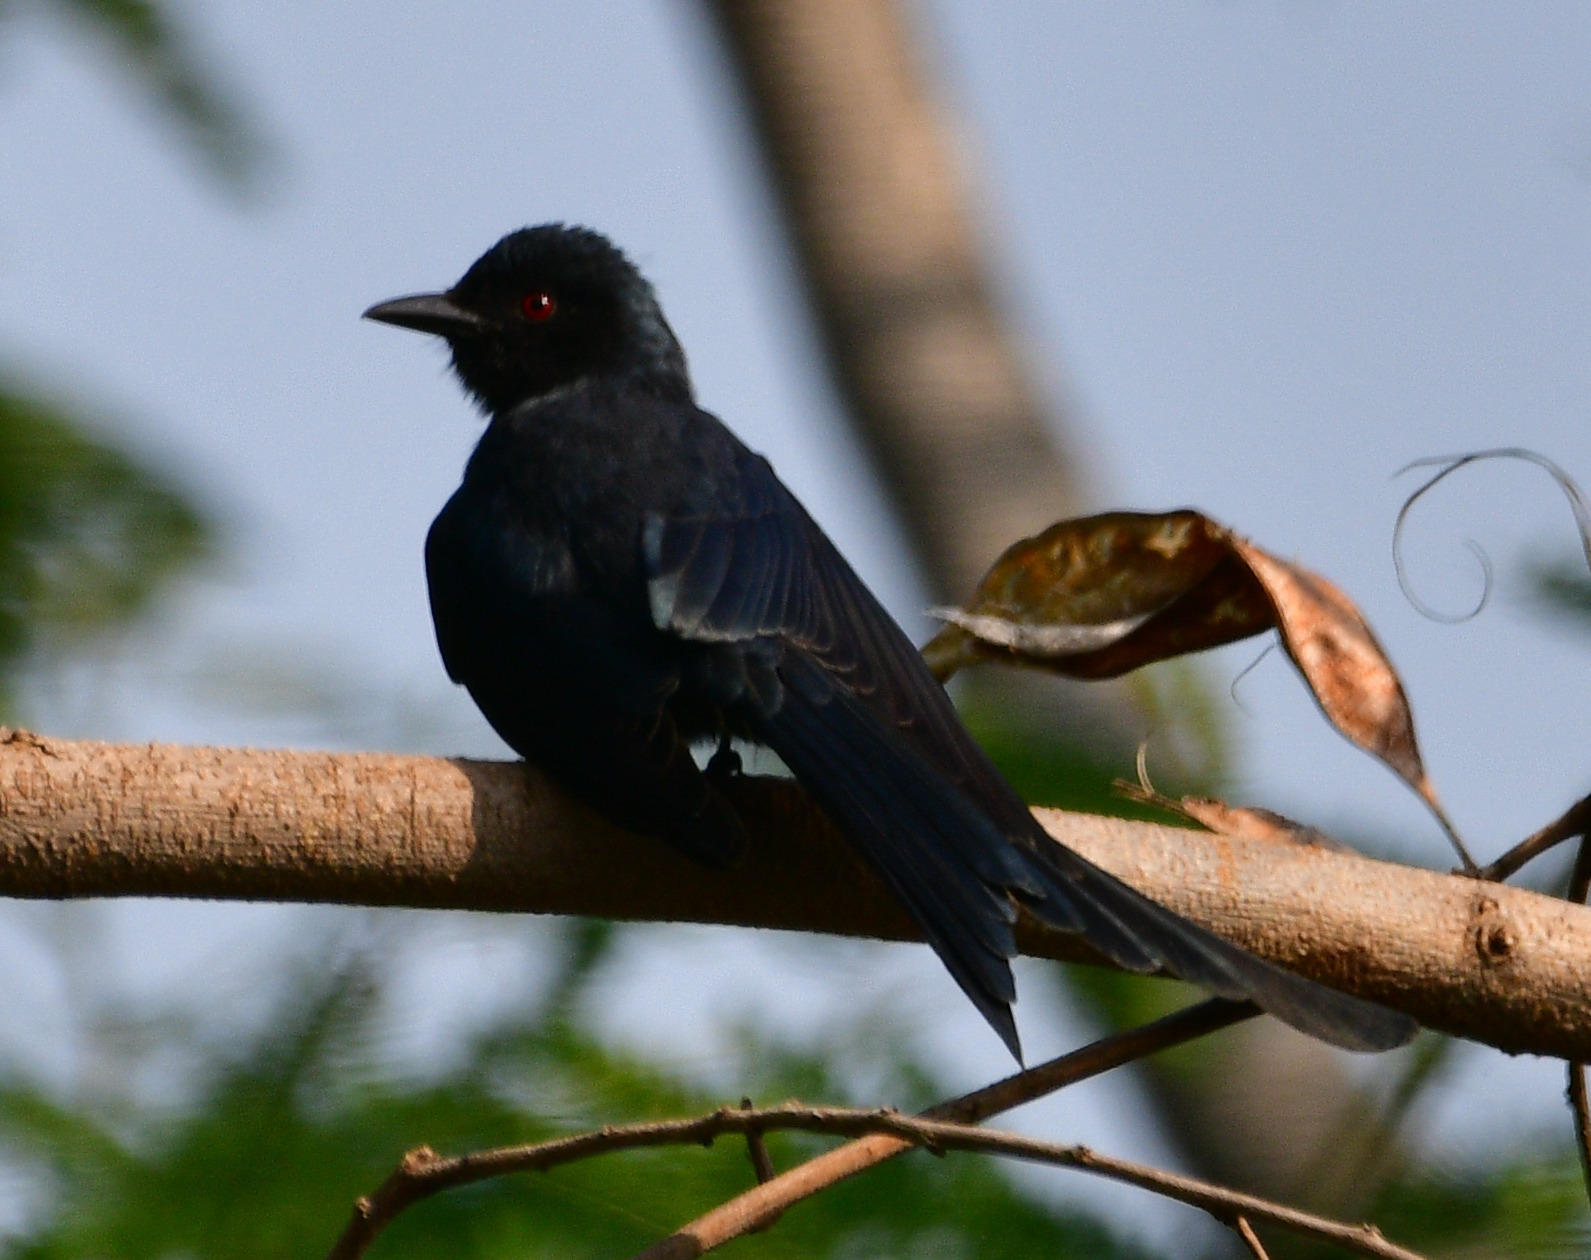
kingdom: Animalia
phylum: Chordata
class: Aves
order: Passeriformes
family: Dicruridae
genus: Dicrurus
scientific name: Dicrurus leucophaeus
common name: Ashy drongo
